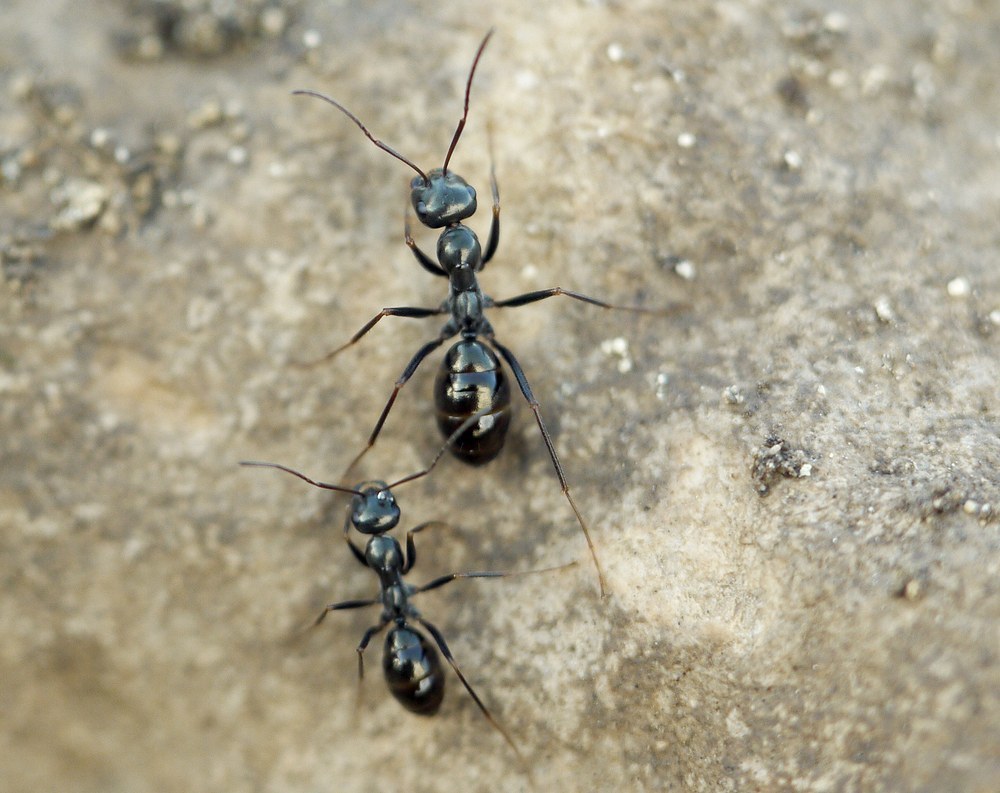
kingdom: Animalia
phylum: Arthropoda
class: Insecta
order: Hymenoptera
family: Formicidae
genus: Cataglyphis
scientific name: Cataglyphis aenescens
